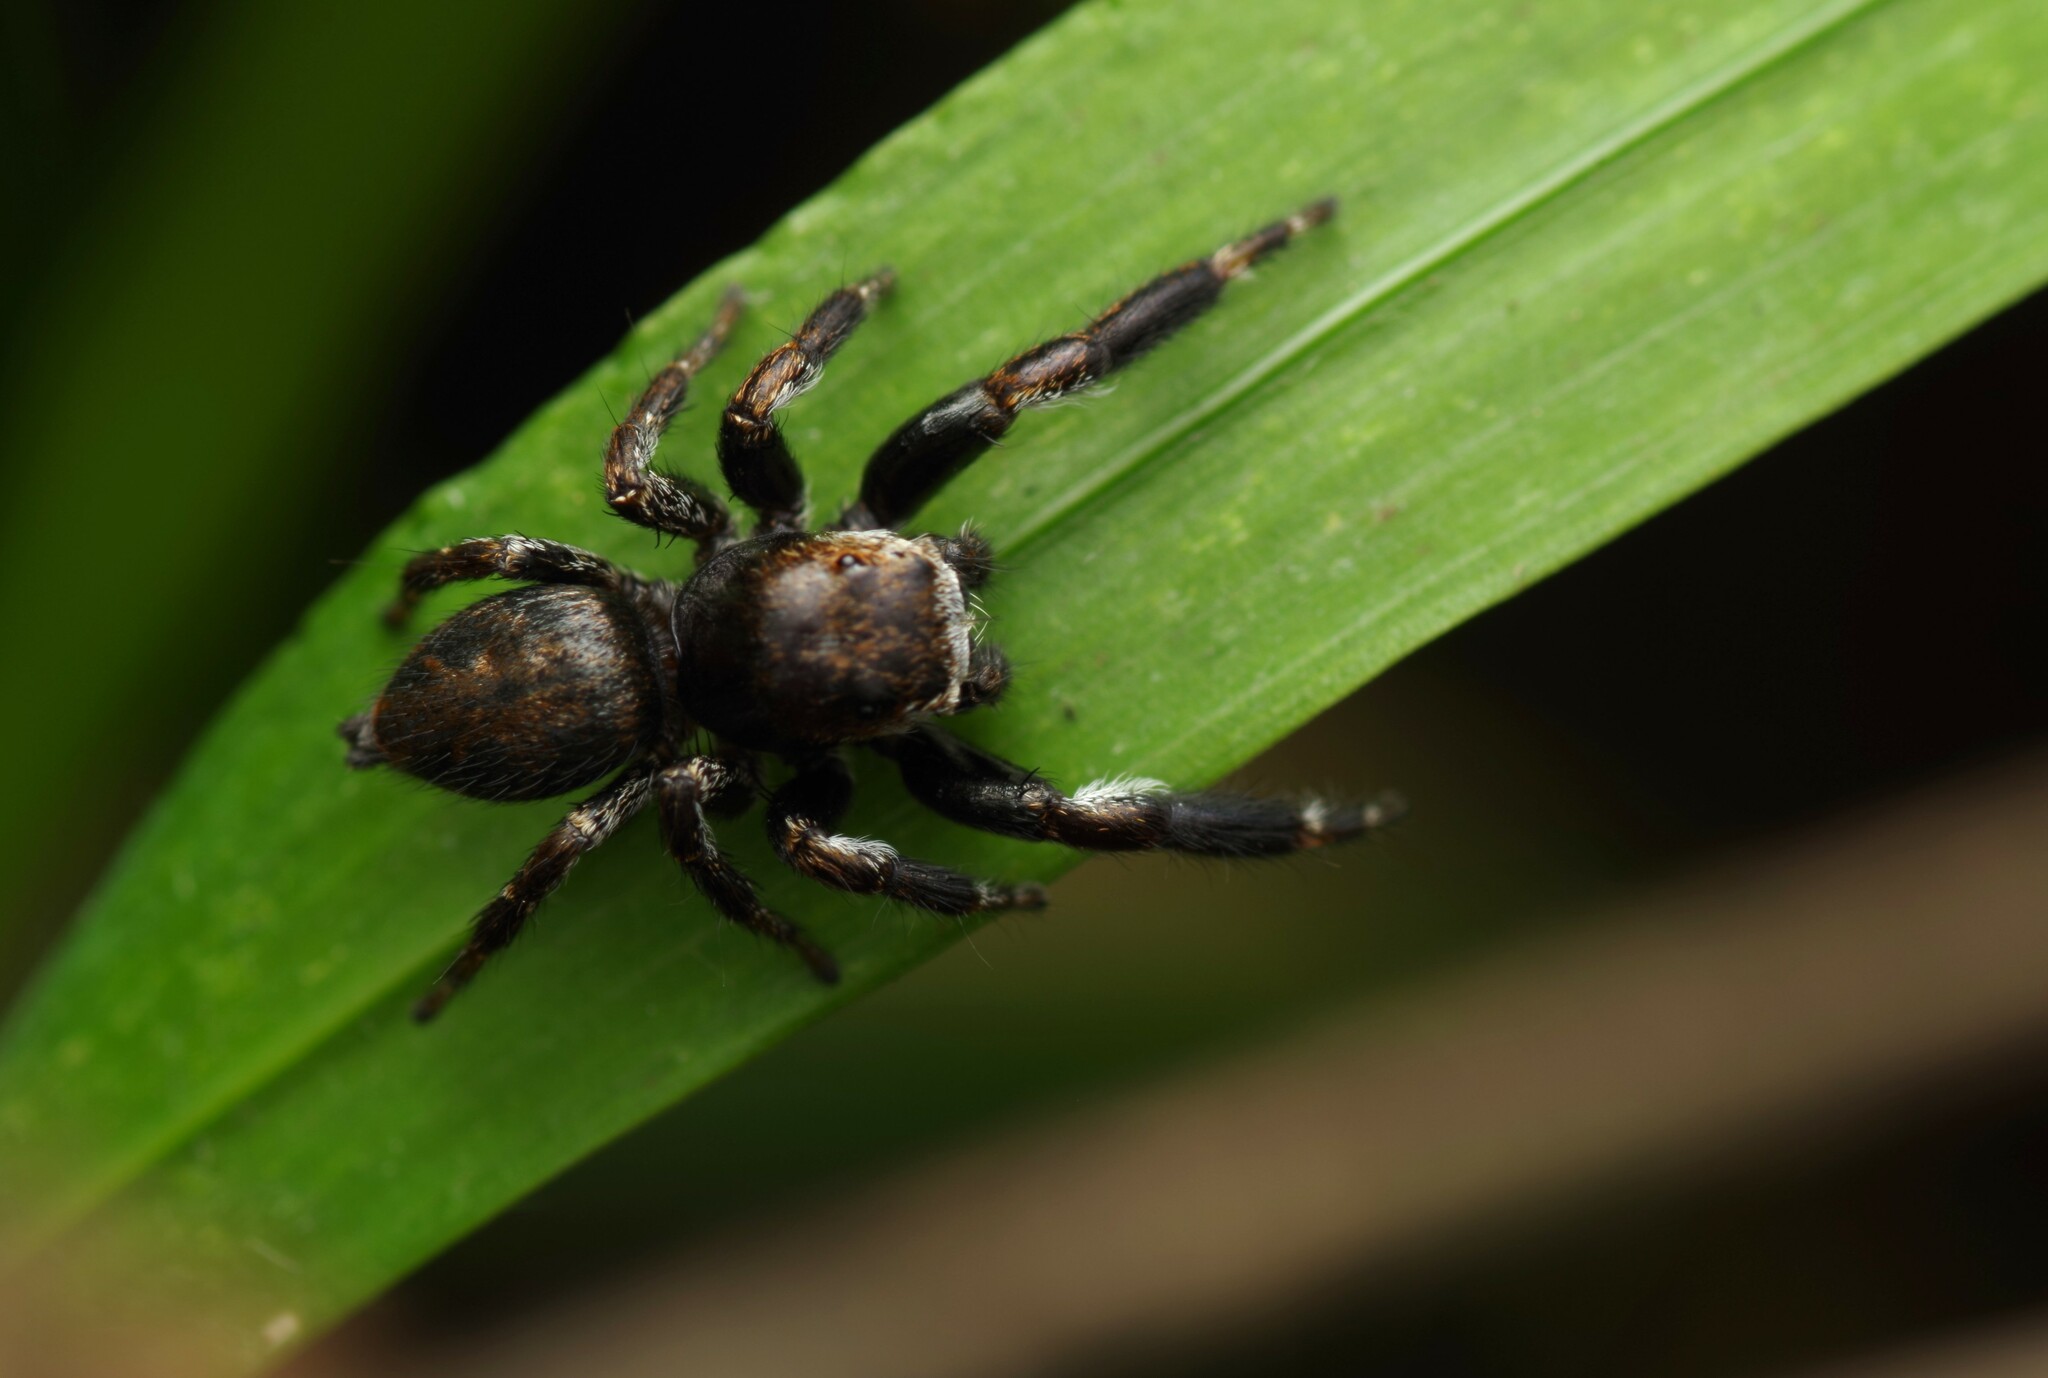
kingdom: Animalia
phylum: Arthropoda
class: Arachnida
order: Araneae
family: Salticidae
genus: Evarcha
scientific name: Evarcha arcuata
